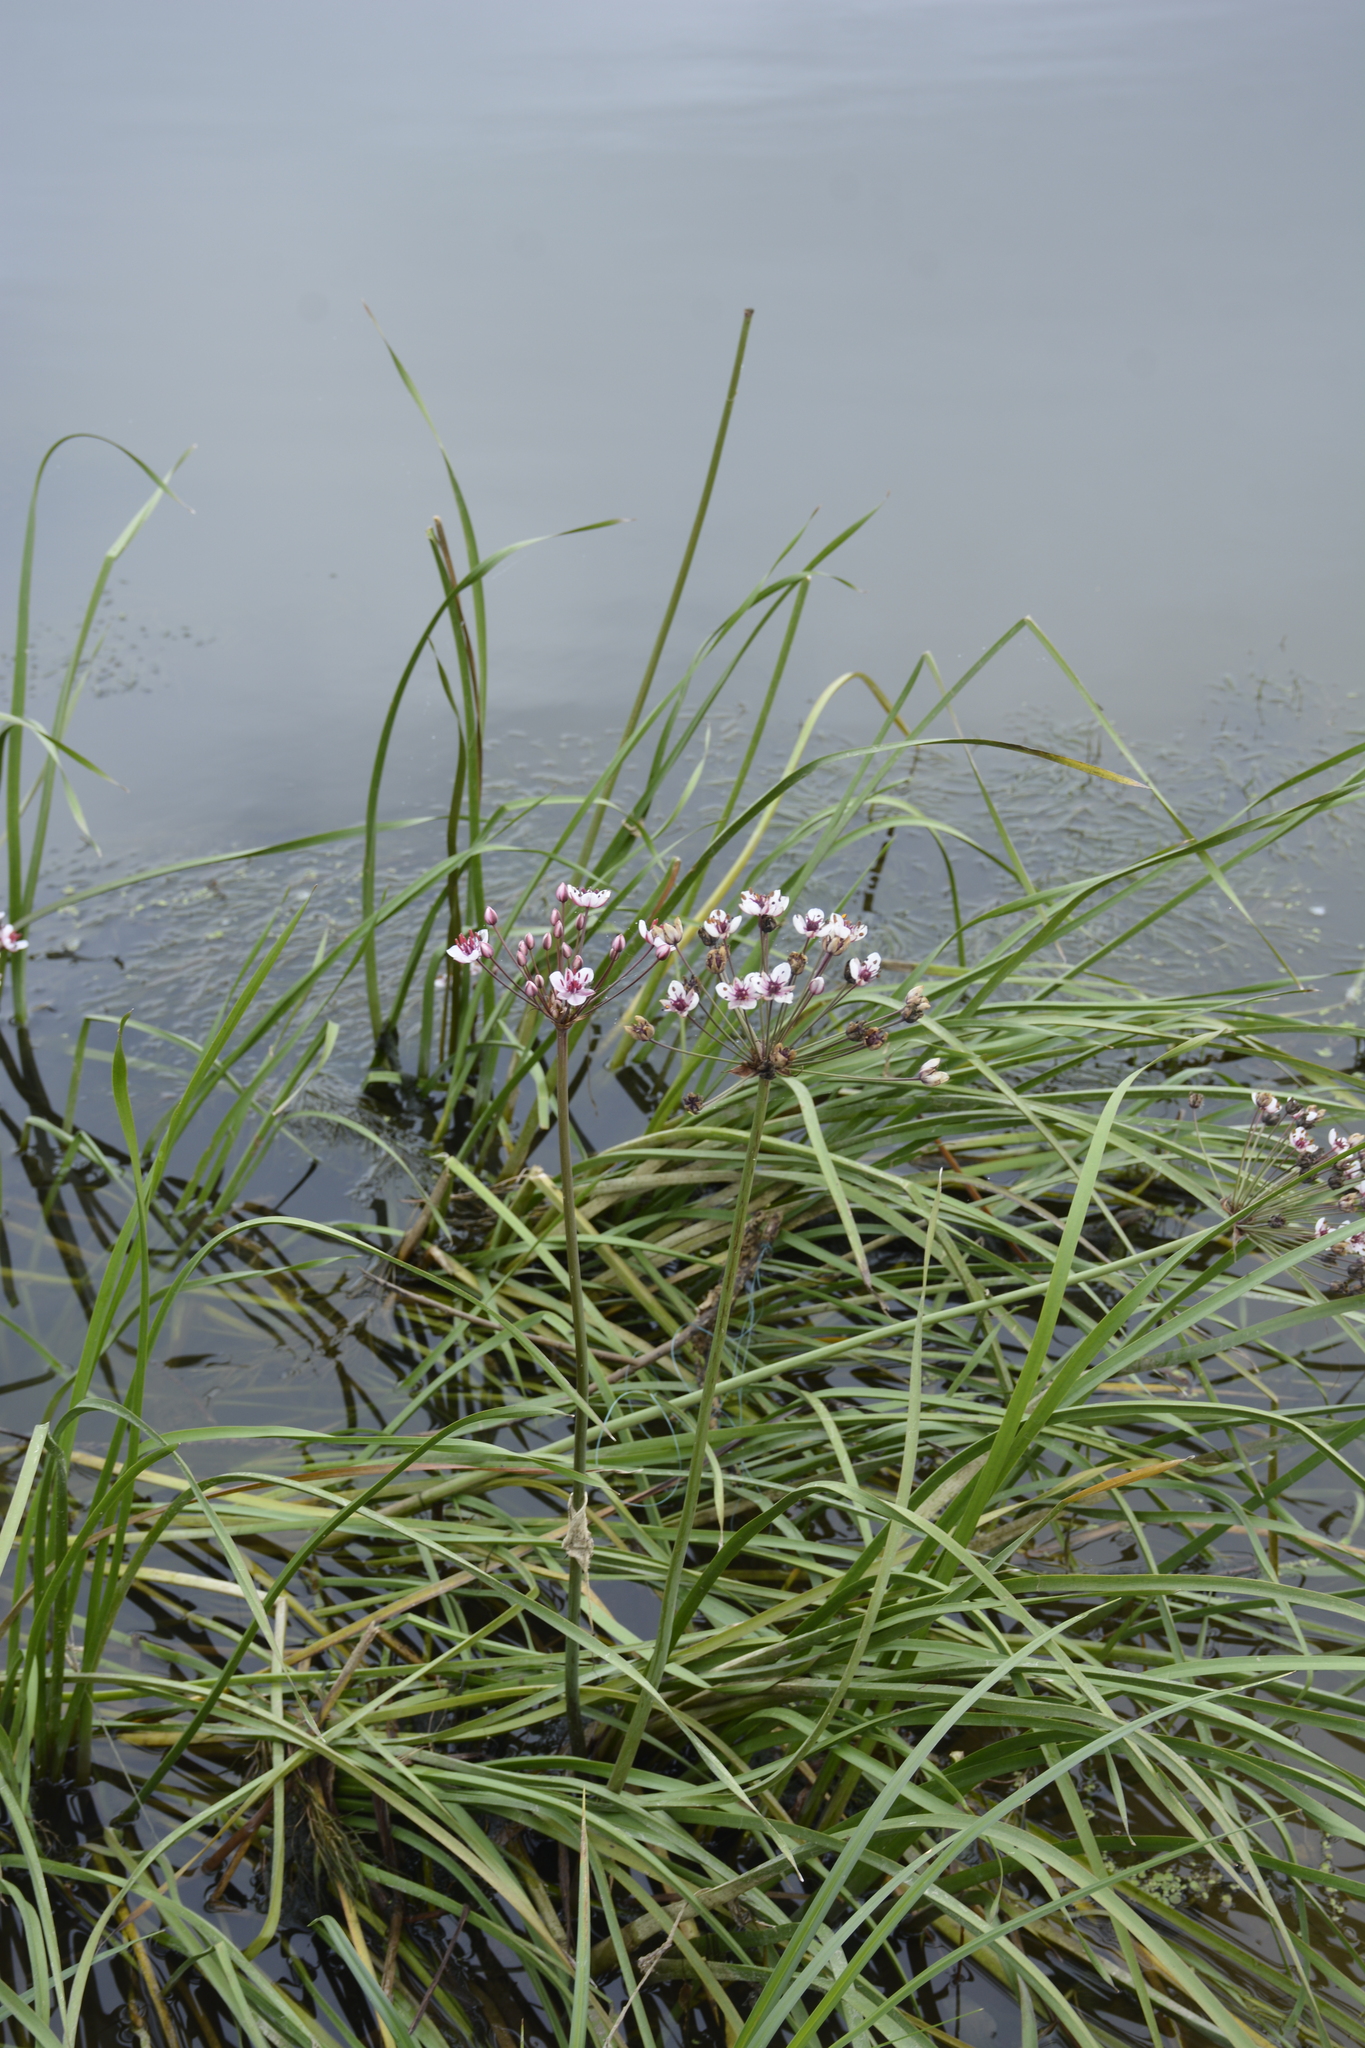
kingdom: Plantae
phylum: Tracheophyta
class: Liliopsida
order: Alismatales
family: Butomaceae
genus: Butomus
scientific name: Butomus umbellatus
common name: Flowering-rush
